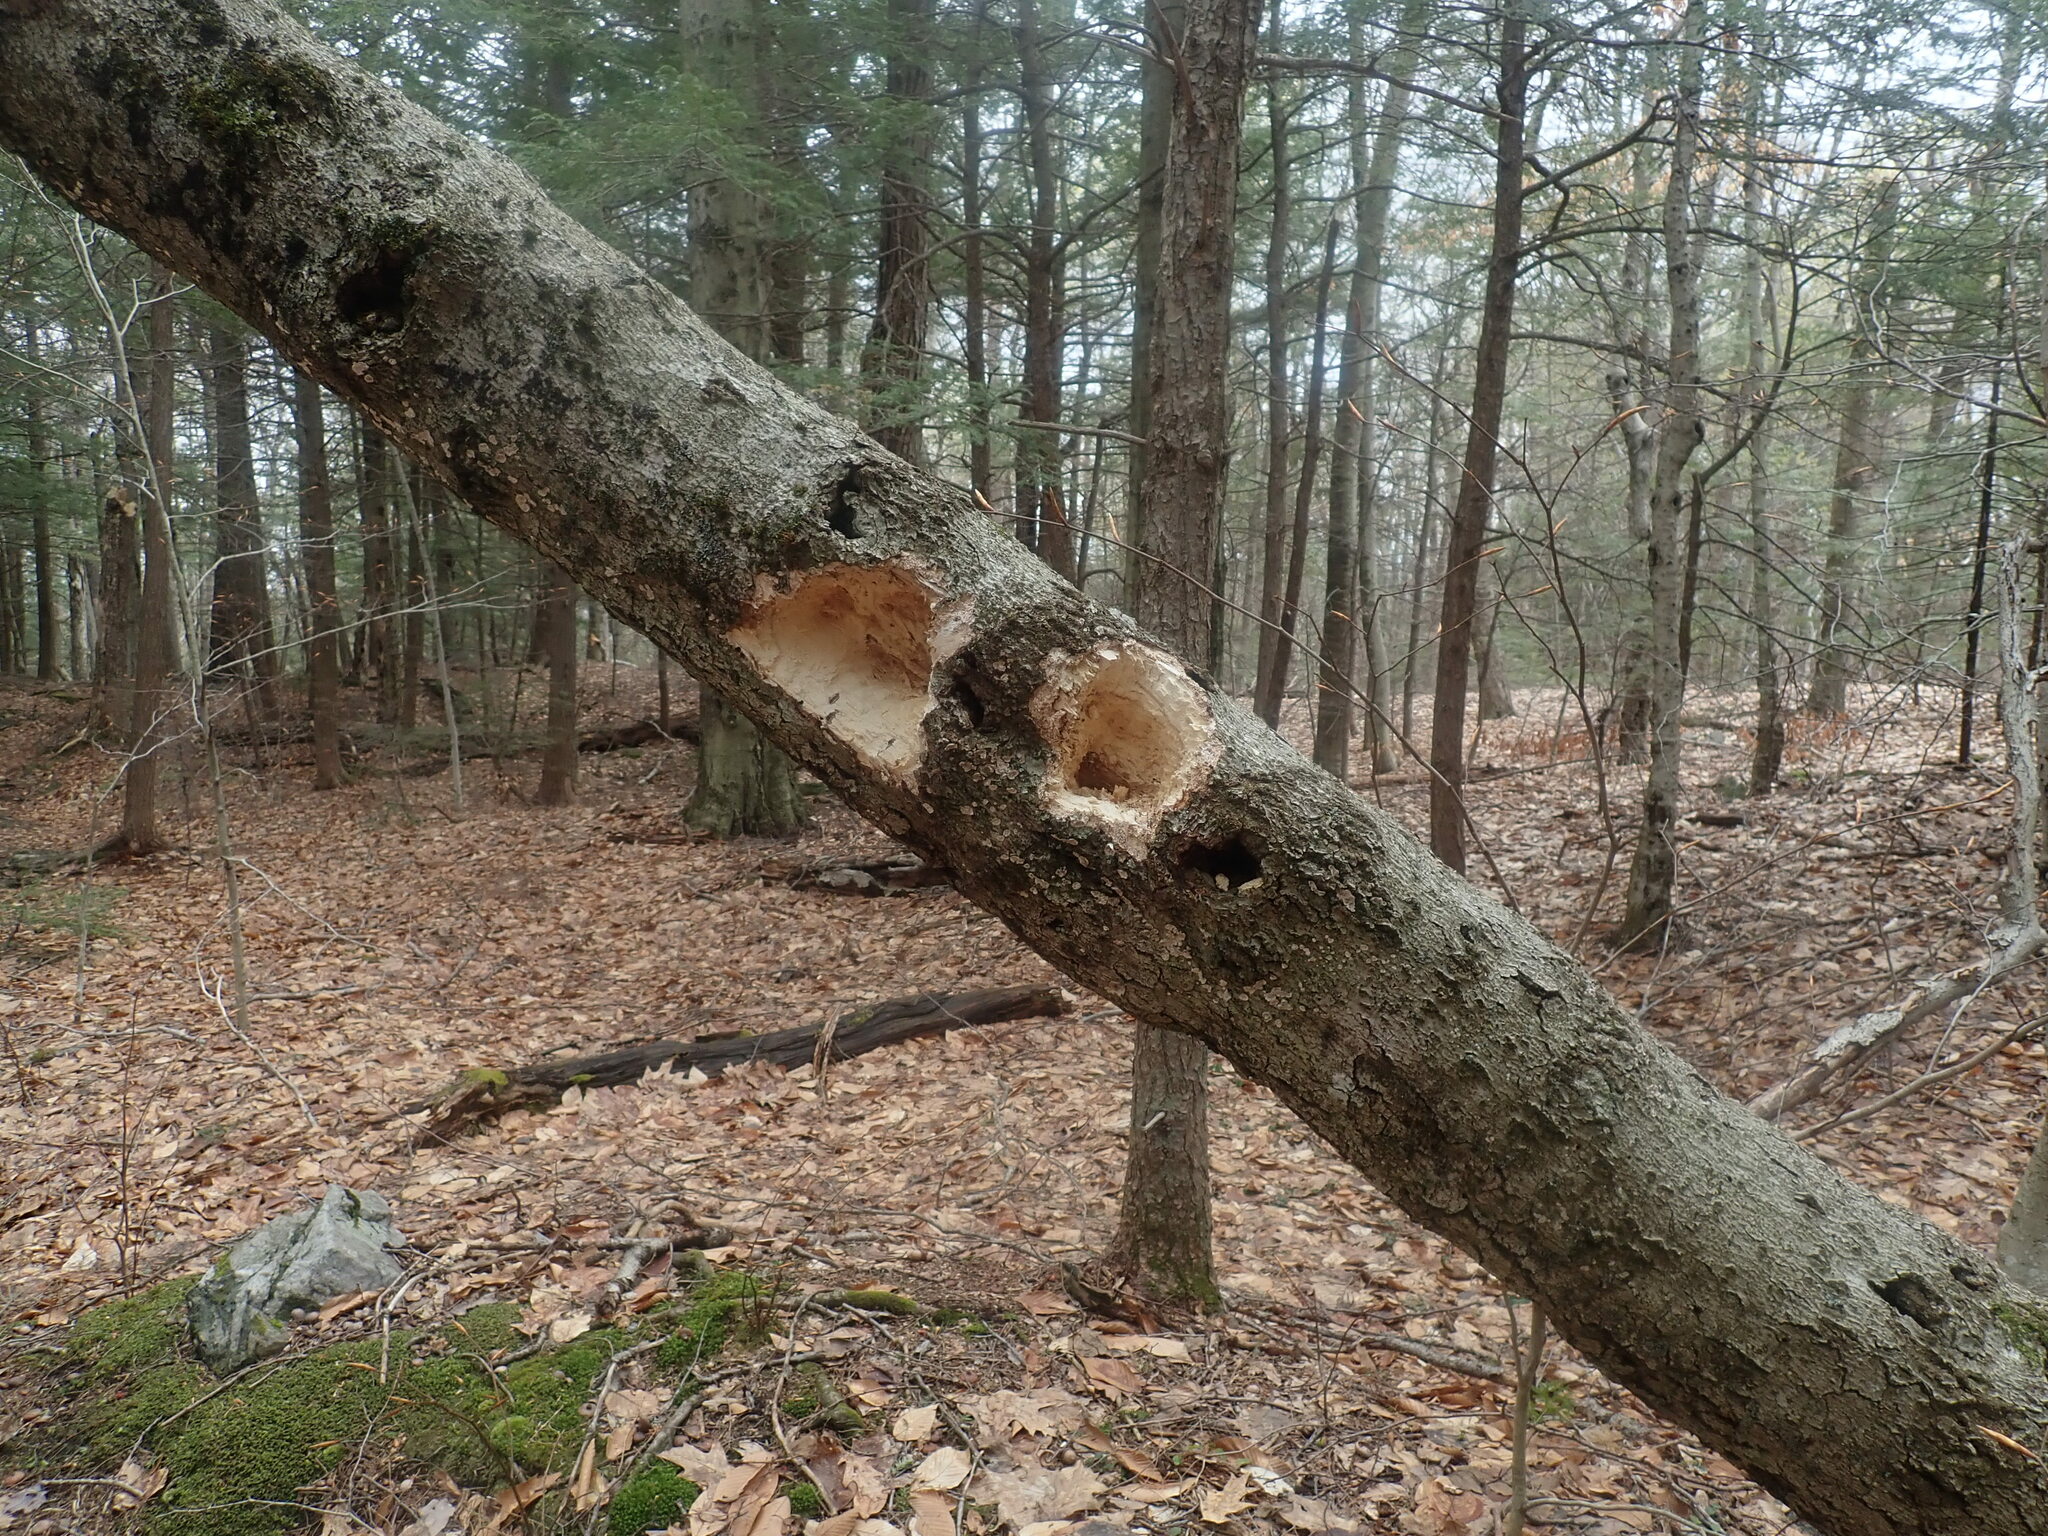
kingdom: Animalia
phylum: Chordata
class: Aves
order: Piciformes
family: Picidae
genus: Dryocopus
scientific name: Dryocopus pileatus
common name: Pileated woodpecker
